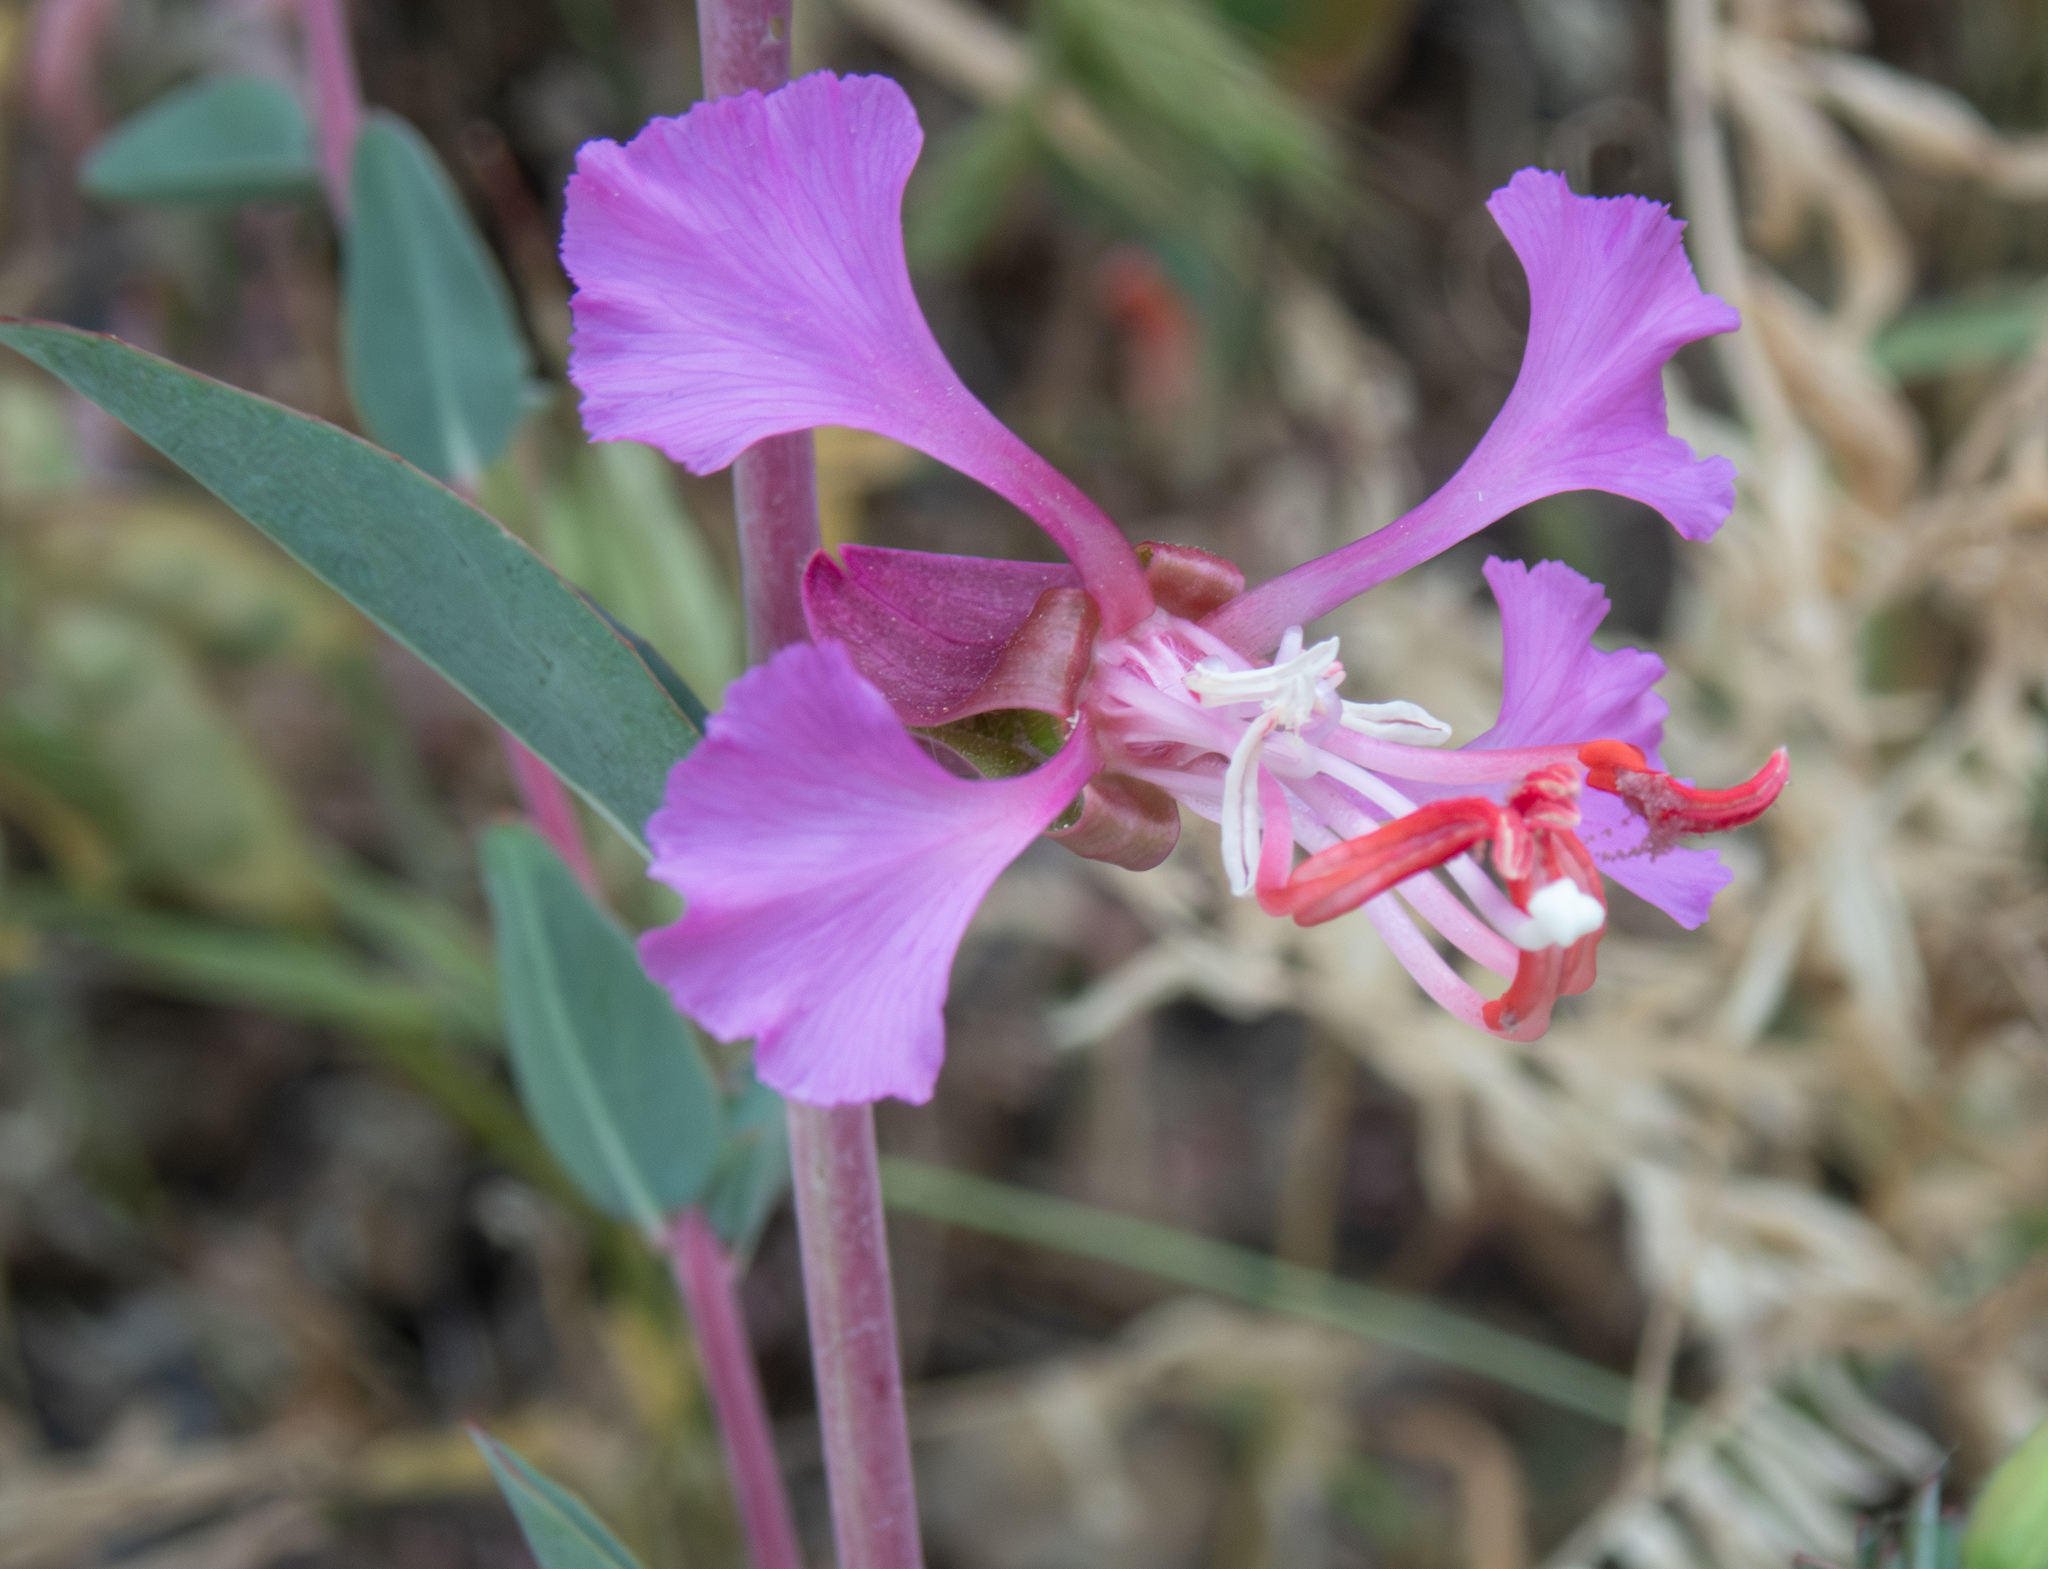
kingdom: Plantae
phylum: Tracheophyta
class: Magnoliopsida
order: Myrtales
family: Onagraceae
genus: Clarkia
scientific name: Clarkia unguiculata
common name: Clarkia
